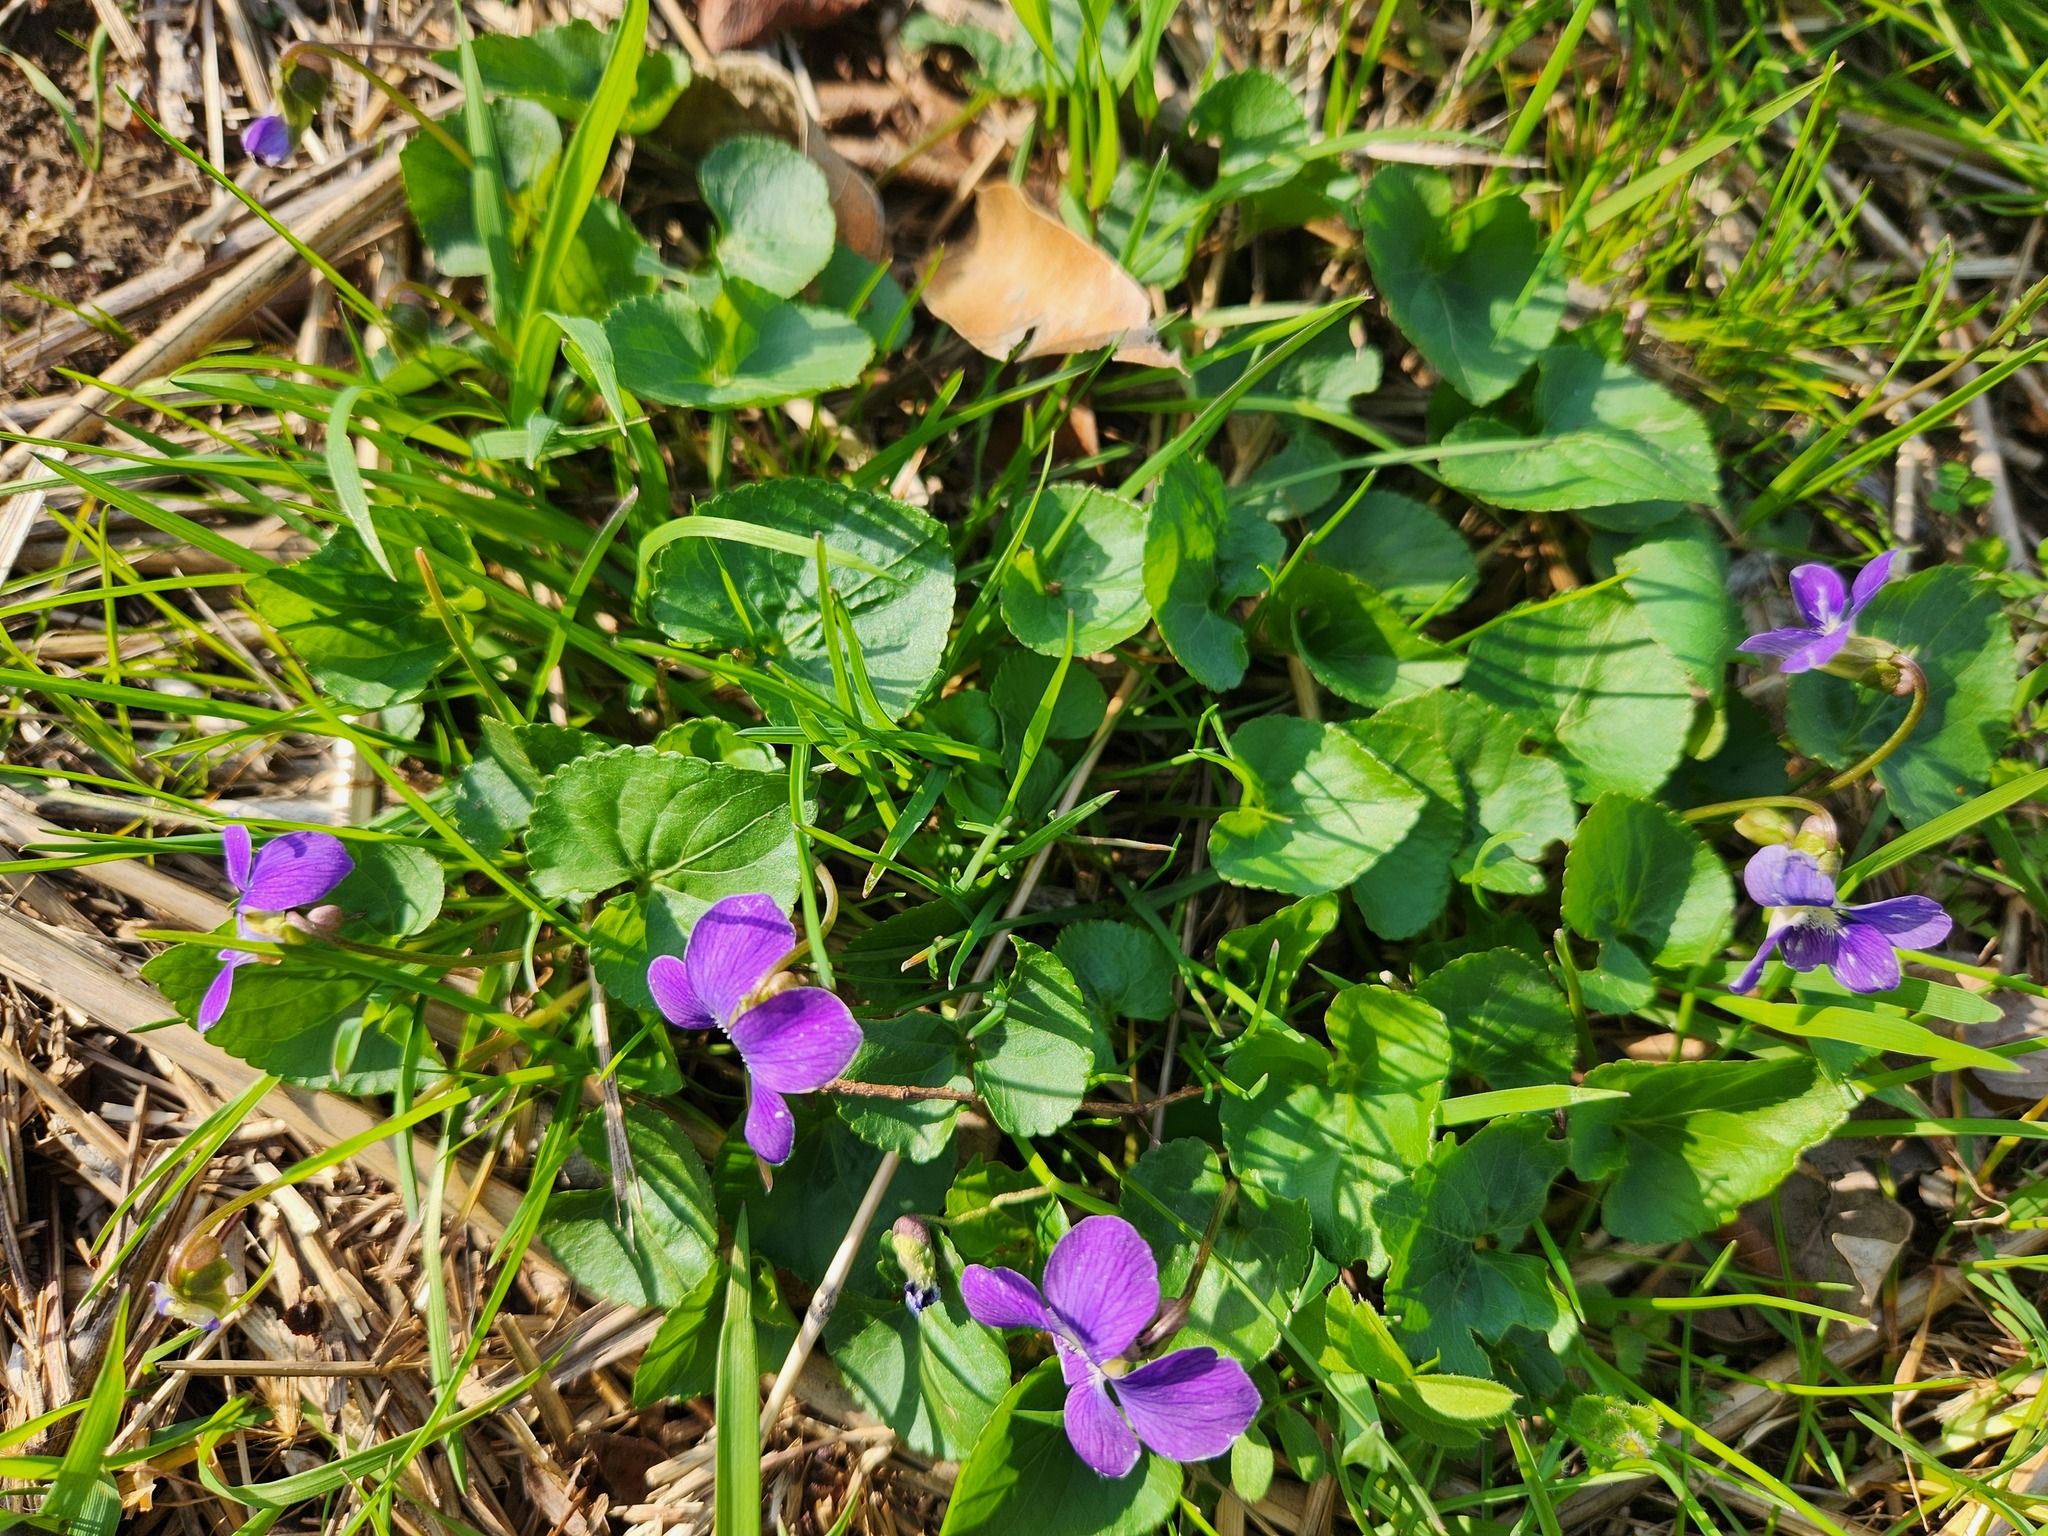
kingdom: Plantae
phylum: Tracheophyta
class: Magnoliopsida
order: Malpighiales
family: Violaceae
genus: Viola
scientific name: Viola sororia
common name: Dooryard violet
